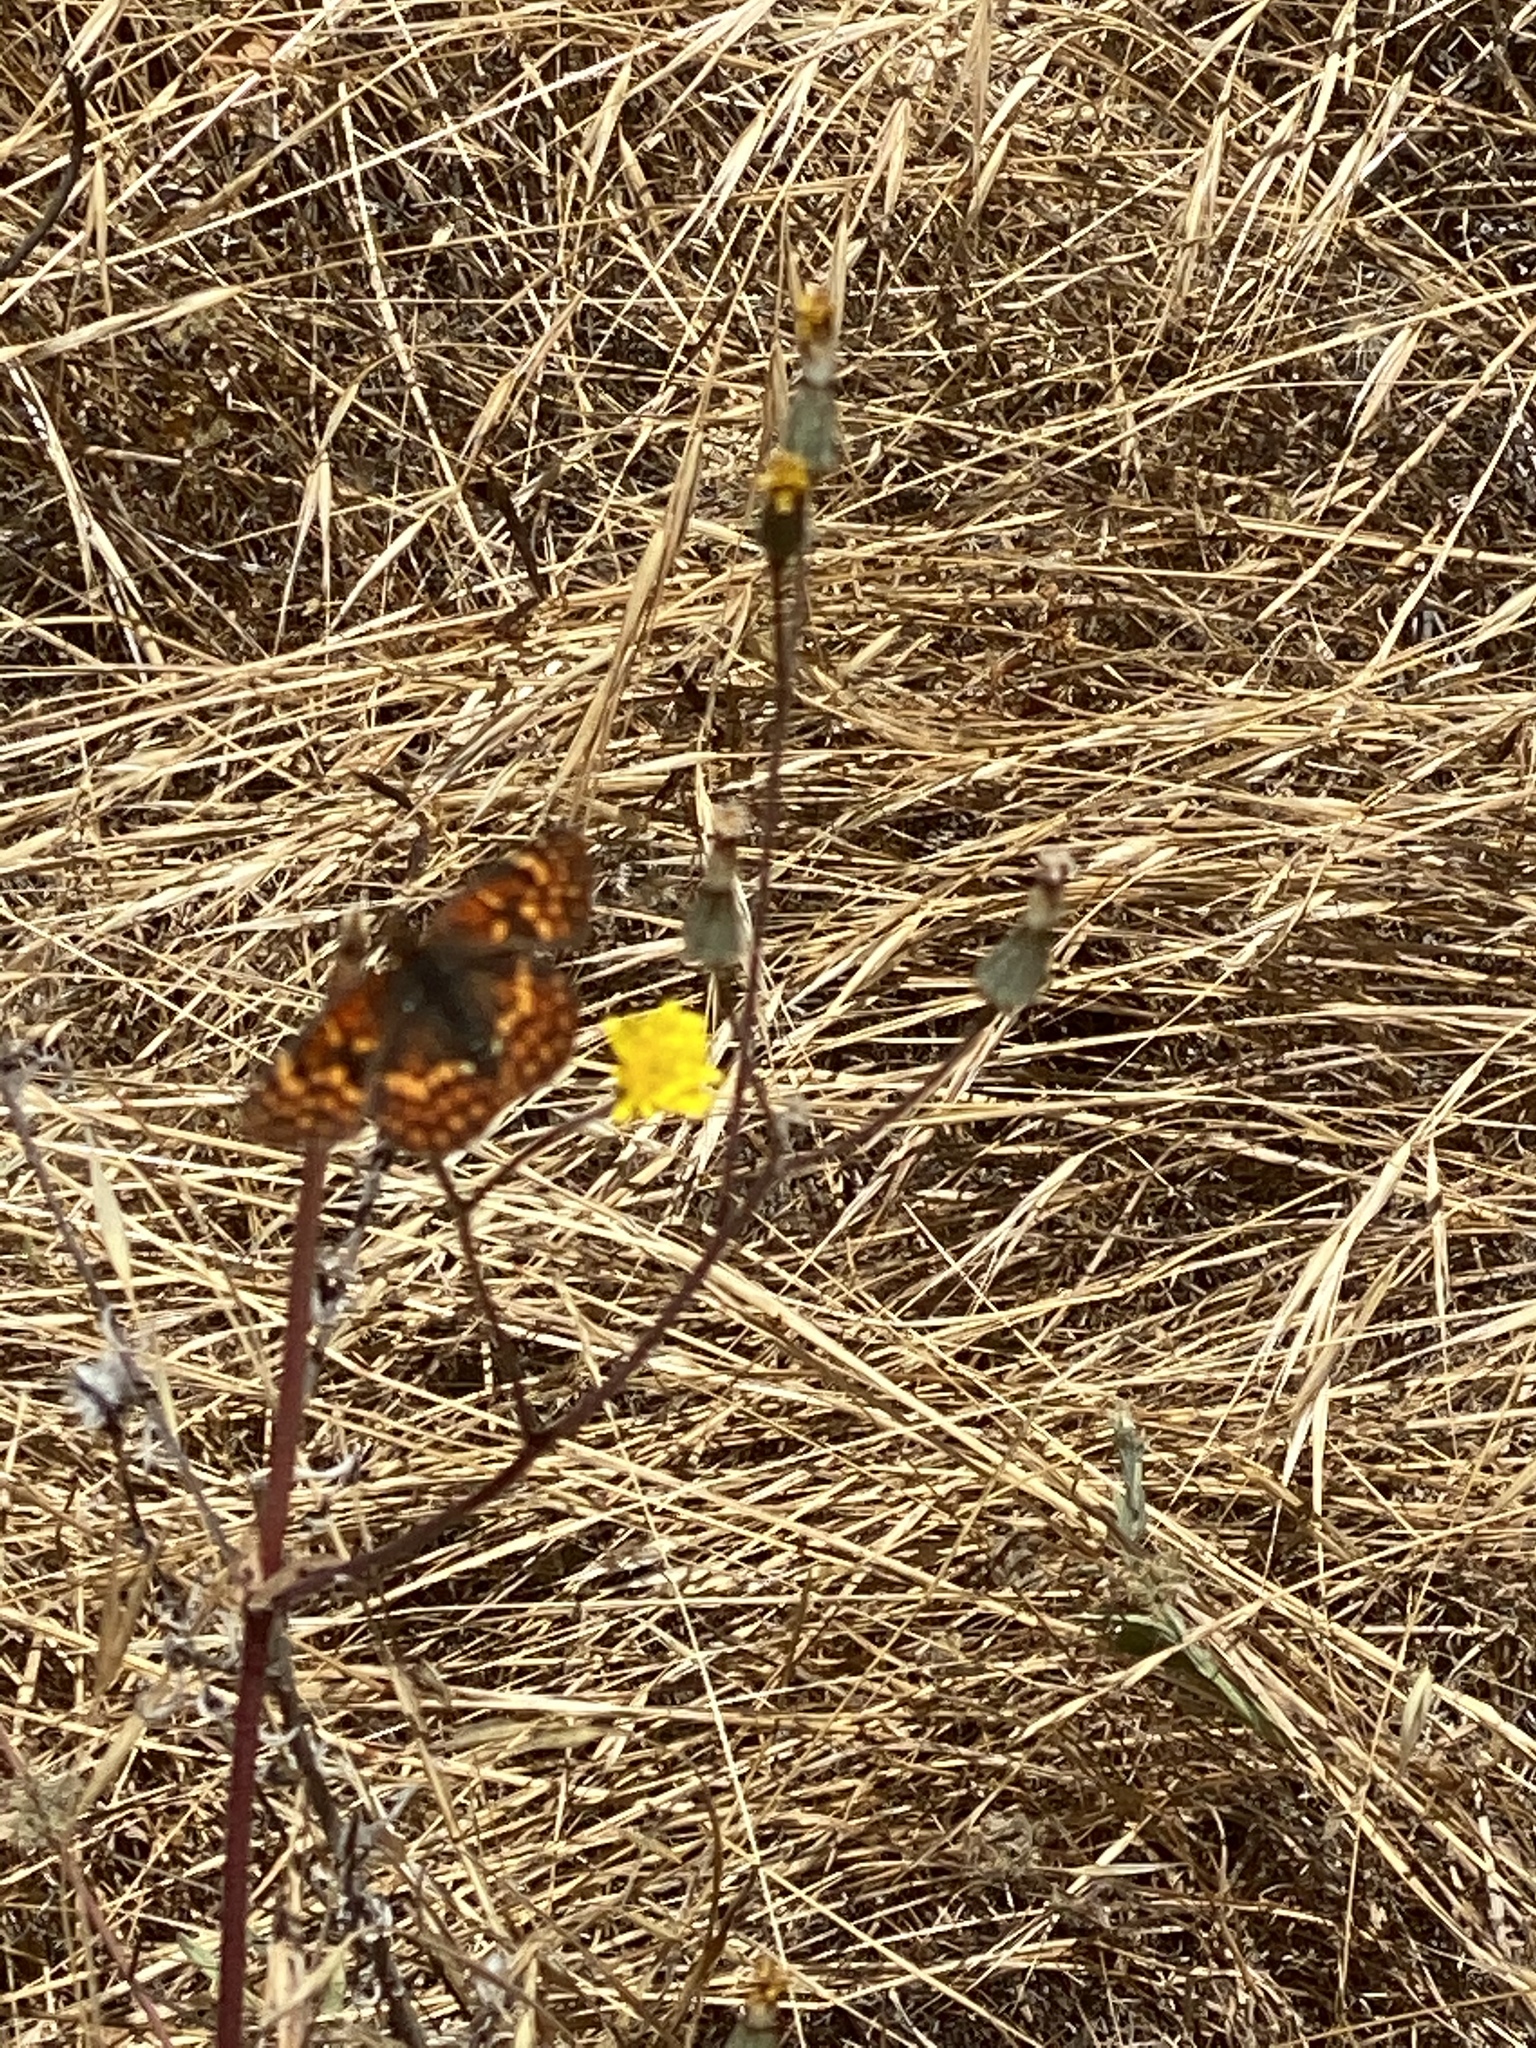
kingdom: Animalia
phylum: Arthropoda
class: Insecta
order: Lepidoptera
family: Nymphalidae
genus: Chlosyne
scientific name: Chlosyne palla
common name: Northern checkerspot
